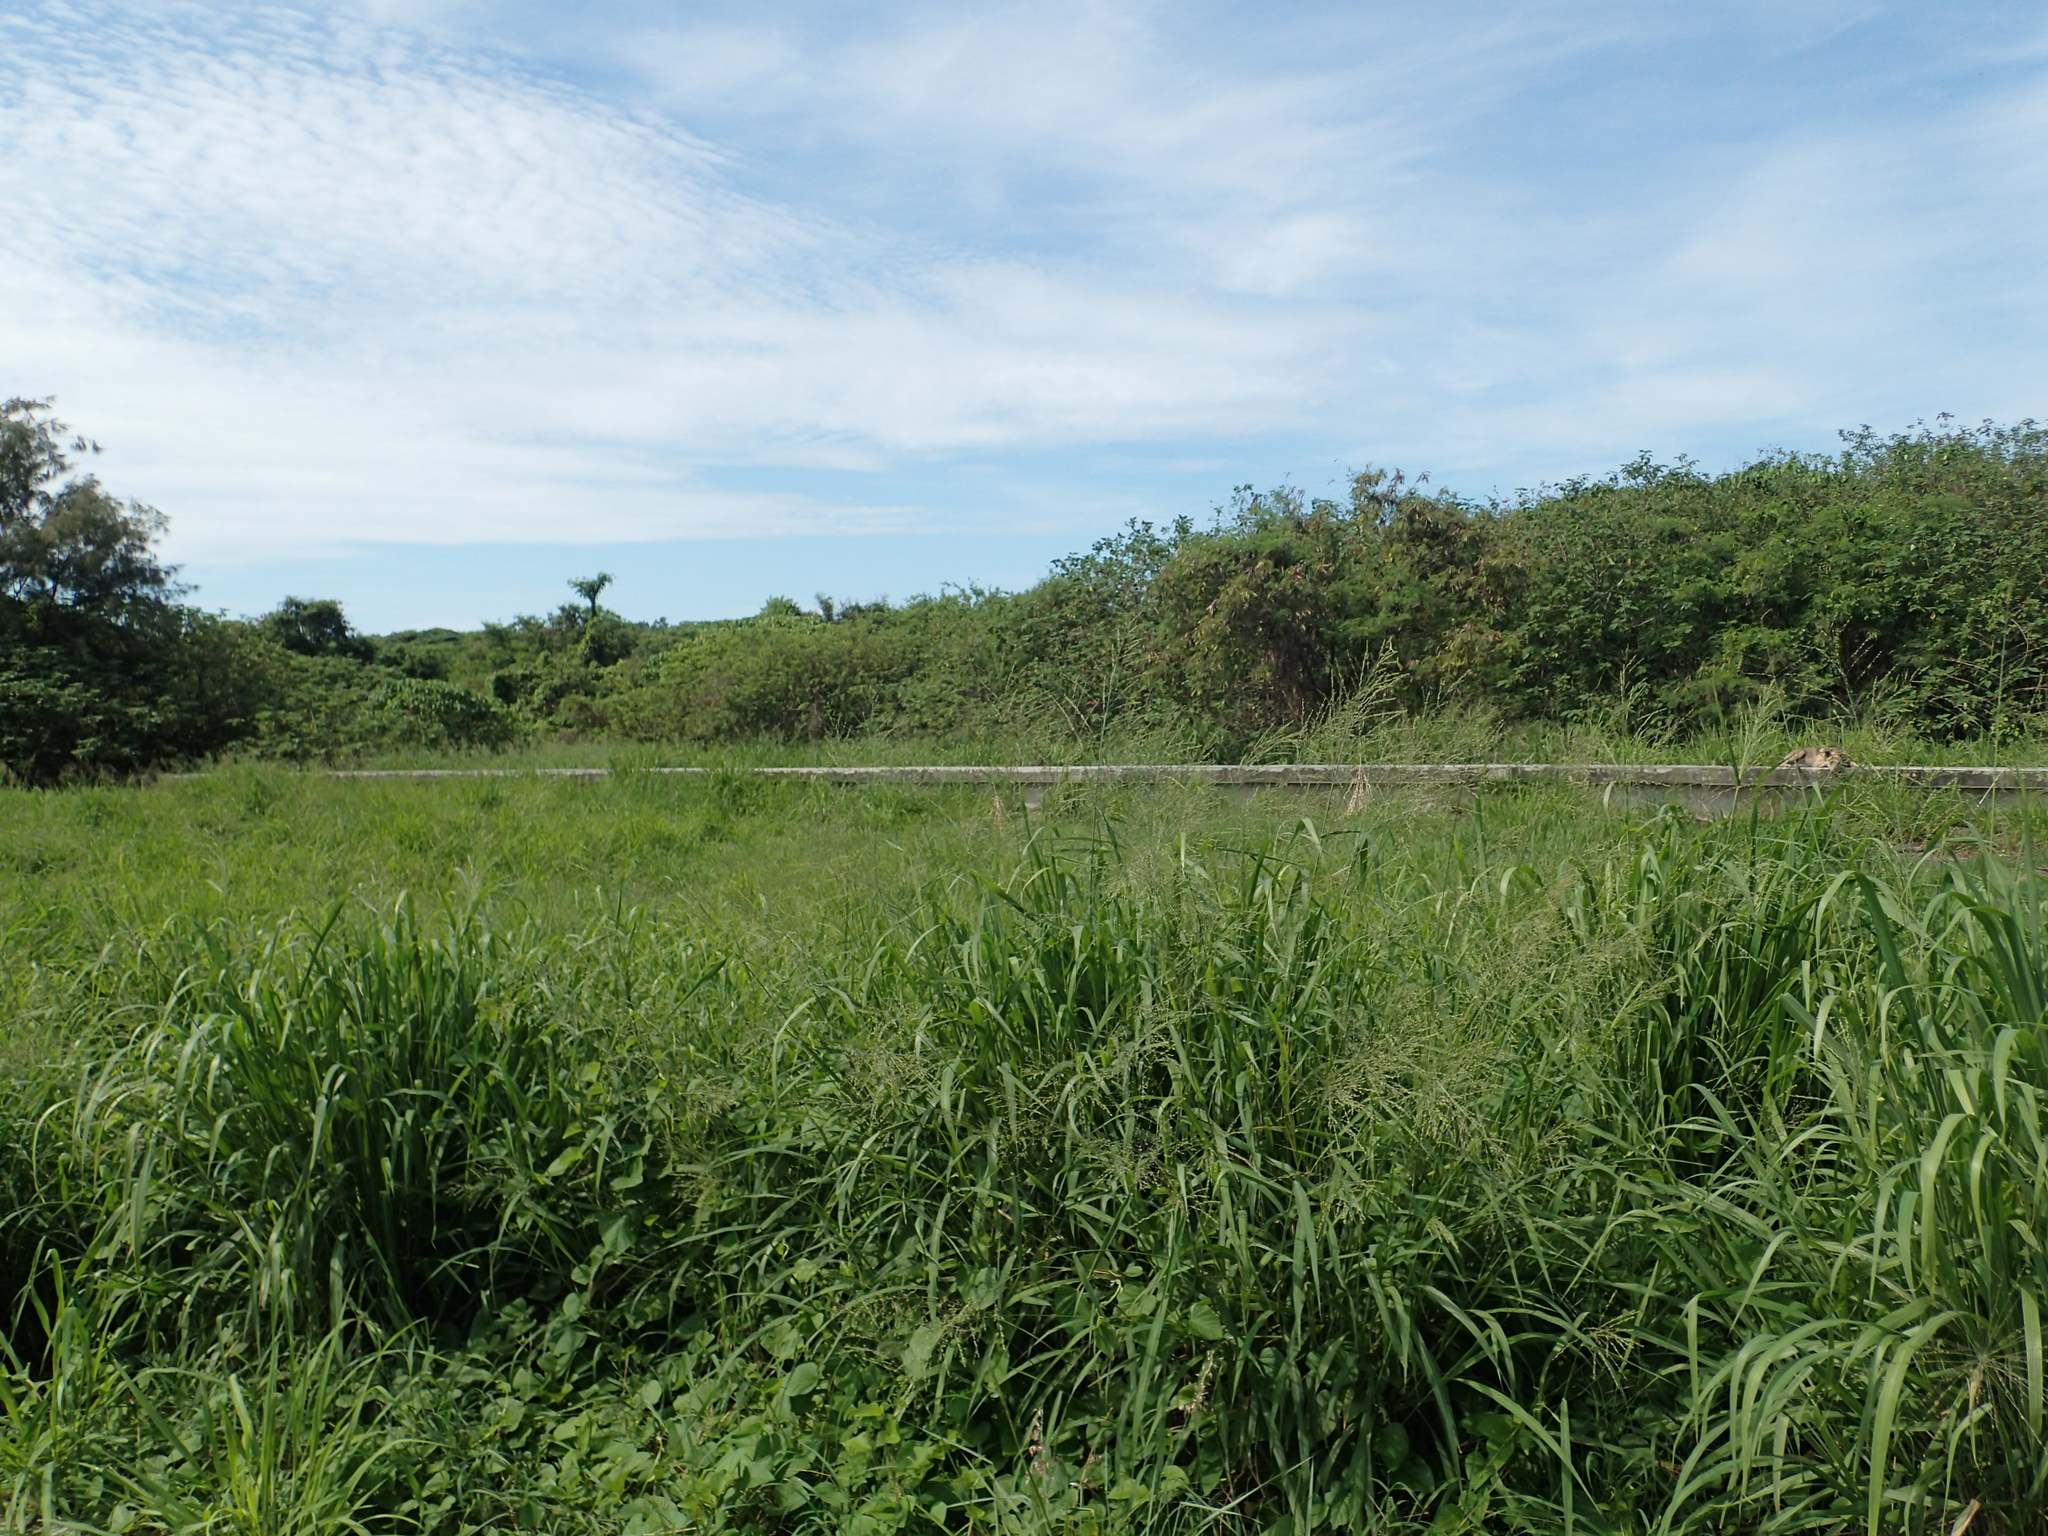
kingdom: Plantae
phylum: Tracheophyta
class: Liliopsida
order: Poales
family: Poaceae
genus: Megathyrsus
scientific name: Megathyrsus maximus
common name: Guineagrass
